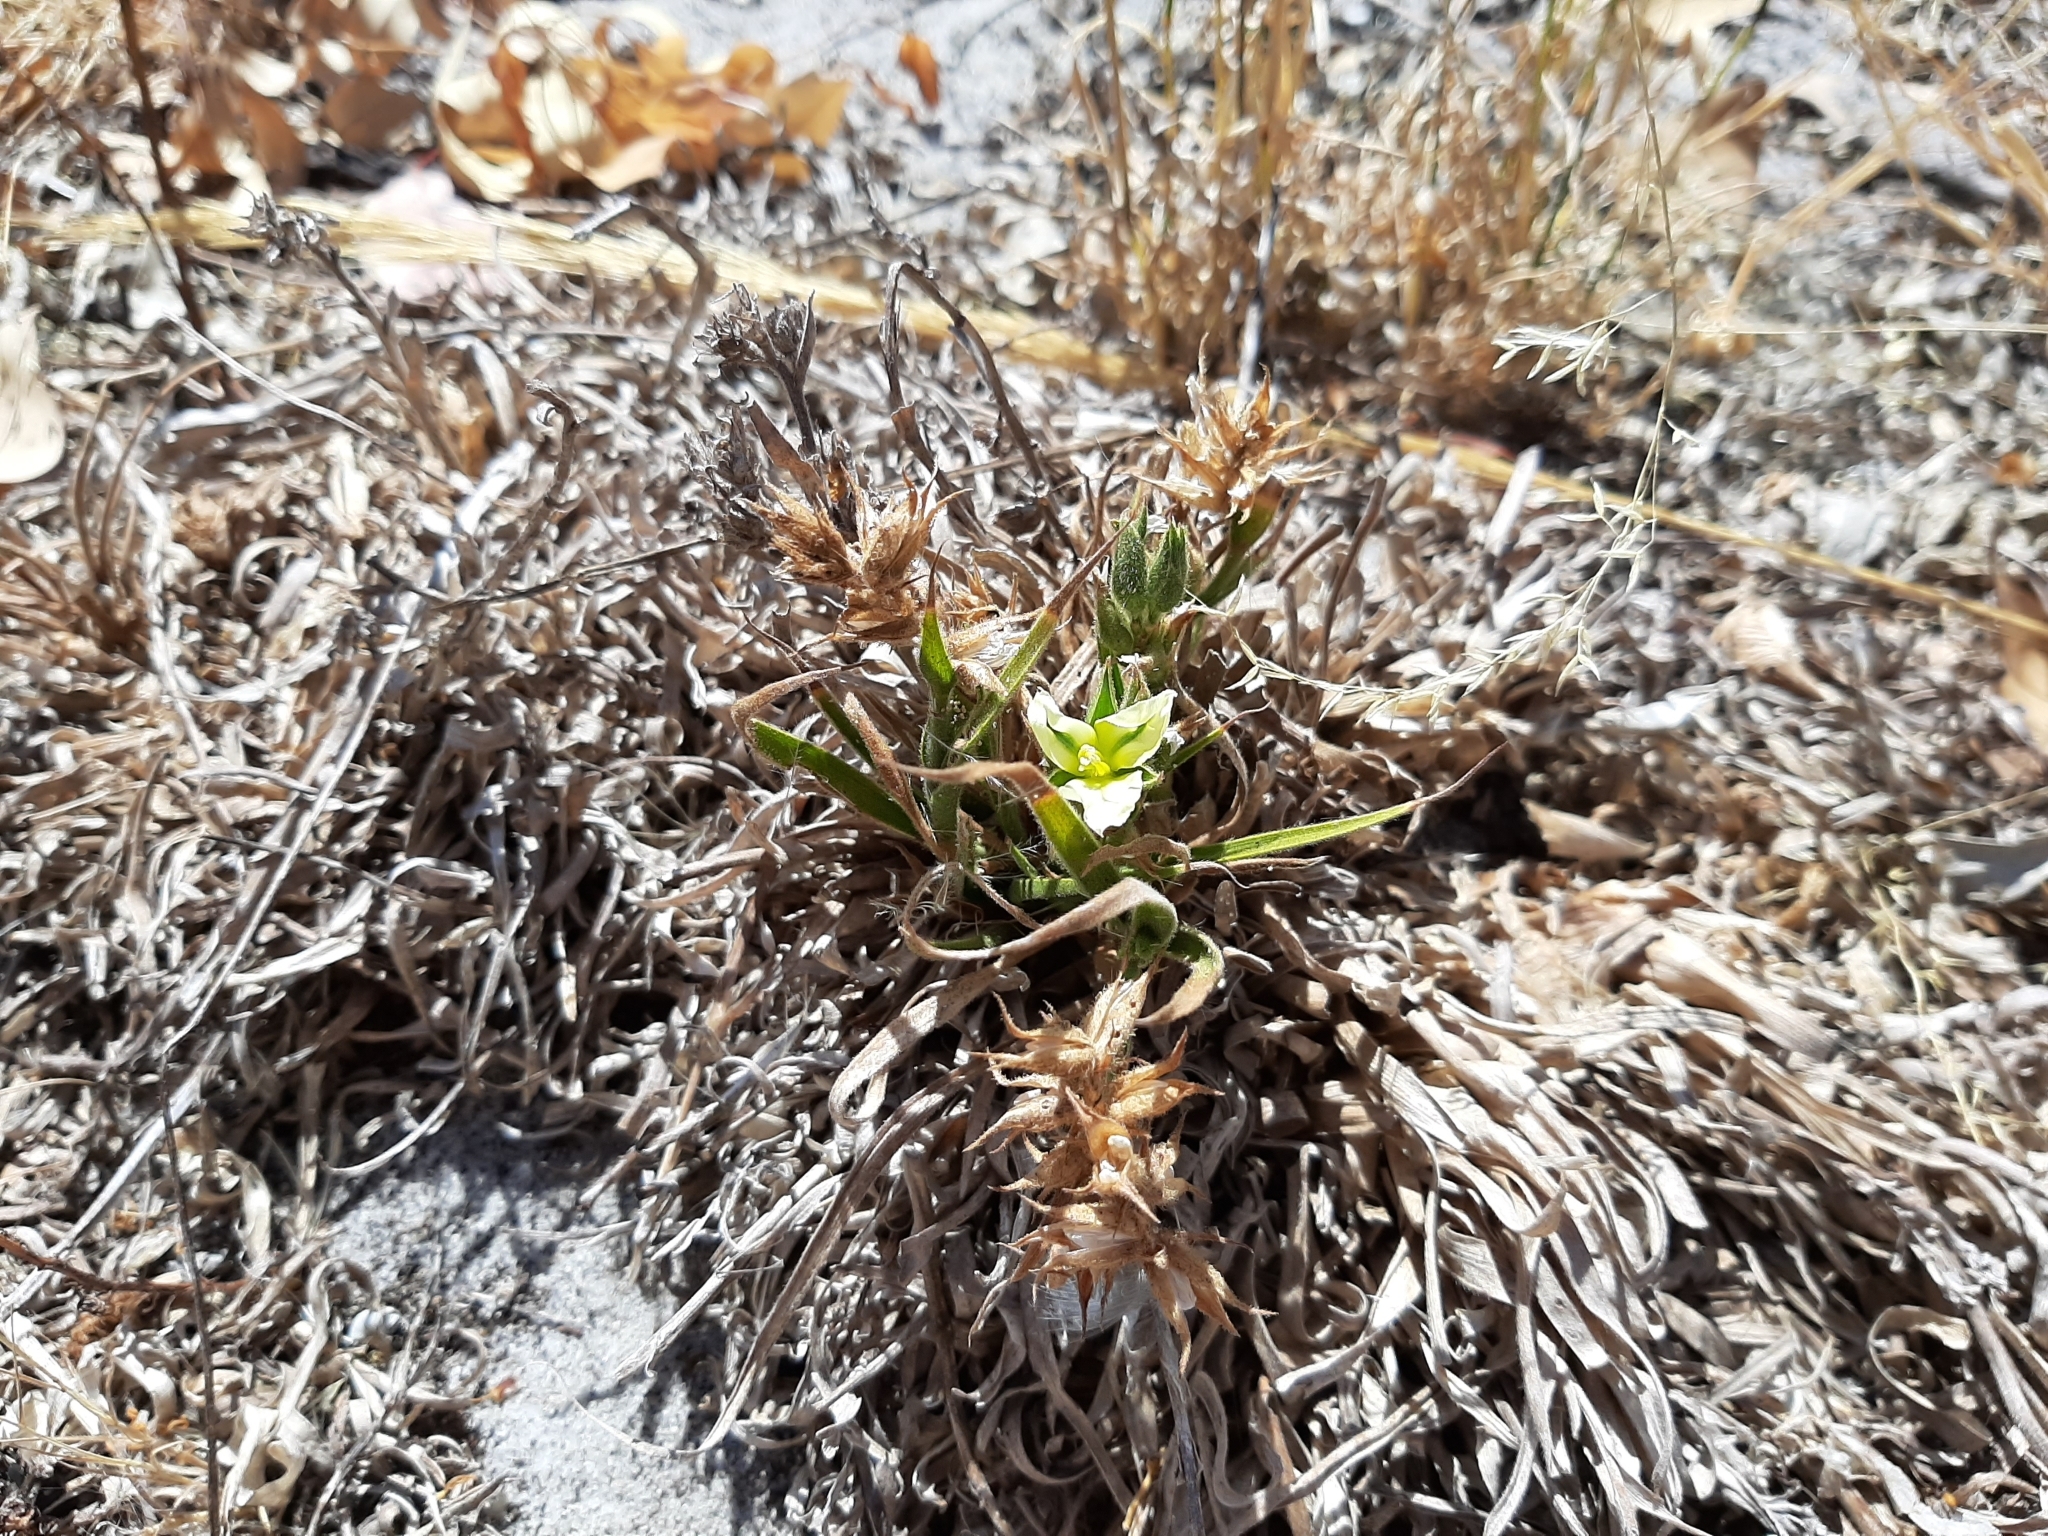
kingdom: Plantae
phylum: Tracheophyta
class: Liliopsida
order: Commelinales
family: Commelinaceae
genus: Cartonema
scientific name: Cartonema philydroides
